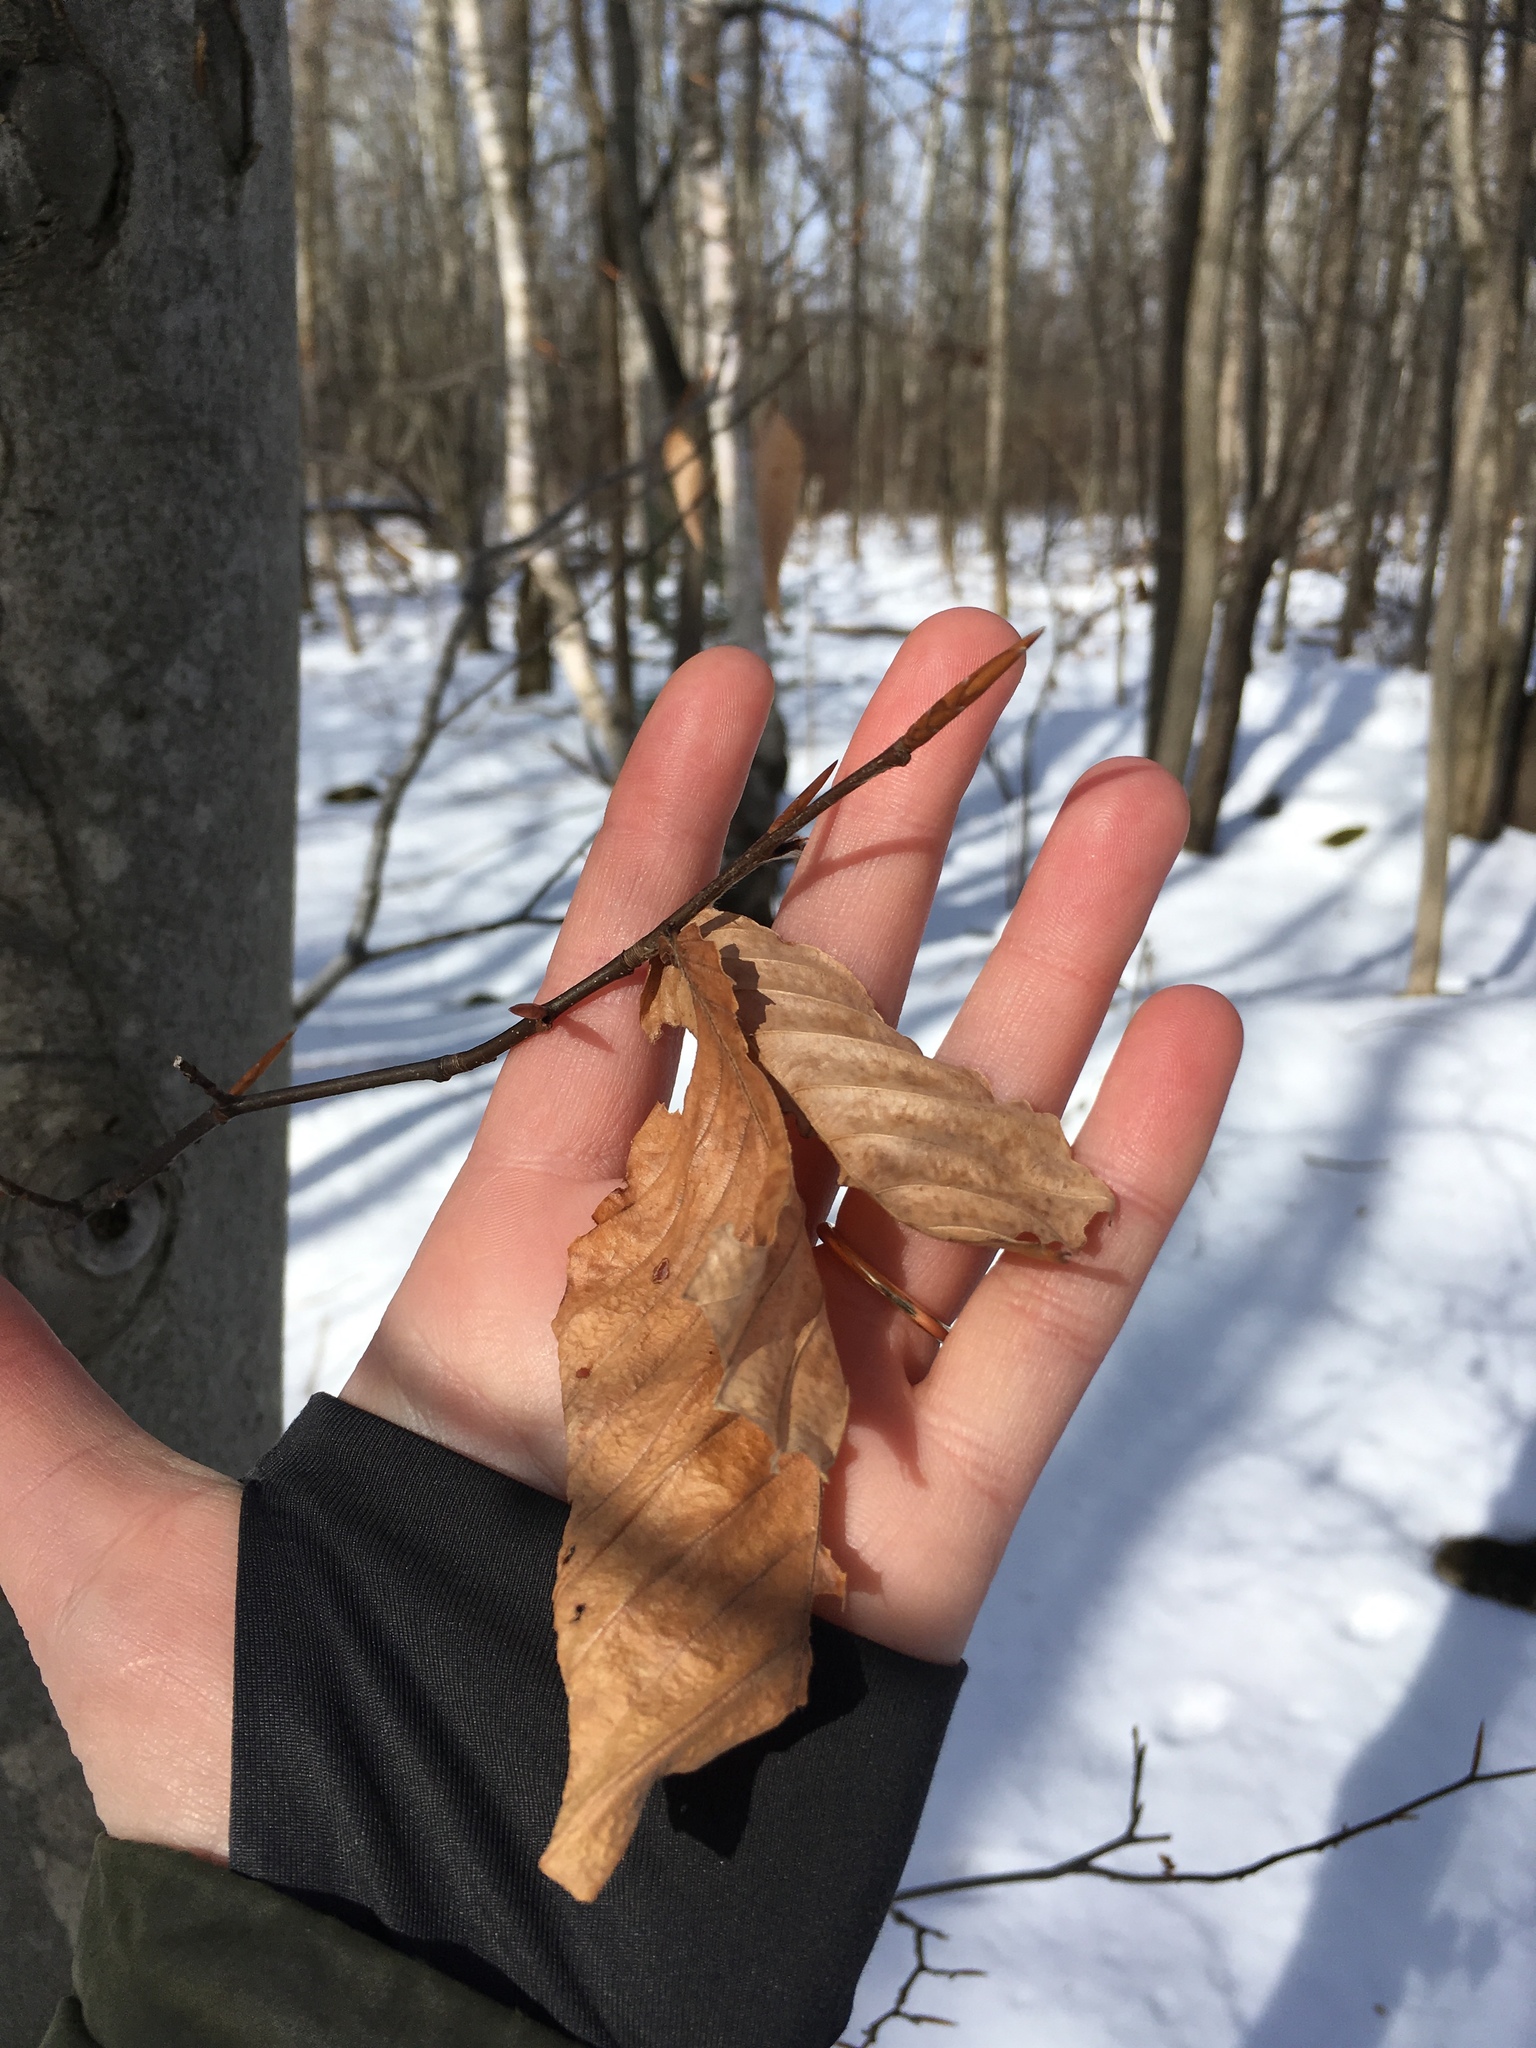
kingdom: Plantae
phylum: Tracheophyta
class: Magnoliopsida
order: Fagales
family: Fagaceae
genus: Fagus
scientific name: Fagus grandifolia
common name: American beech
